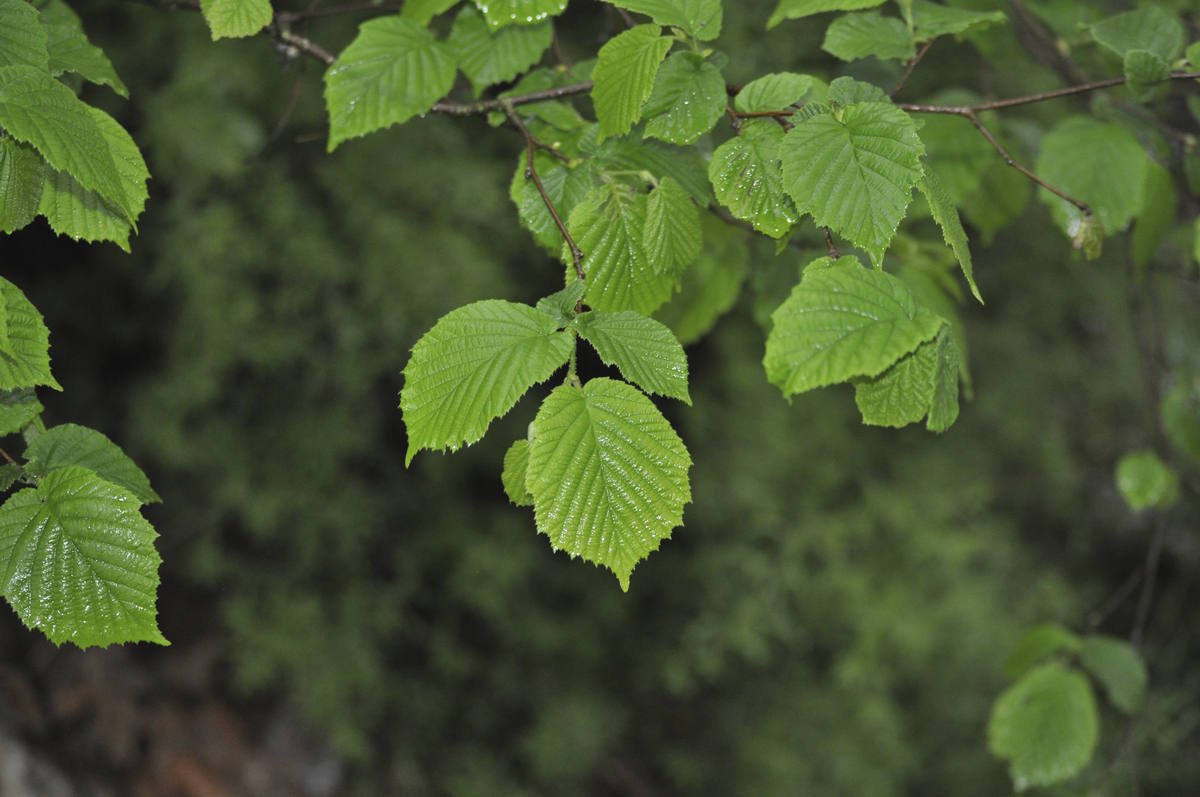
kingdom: Plantae
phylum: Tracheophyta
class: Magnoliopsida
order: Fagales
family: Betulaceae
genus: Corylus
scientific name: Corylus cornuta
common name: Beaked hazel
